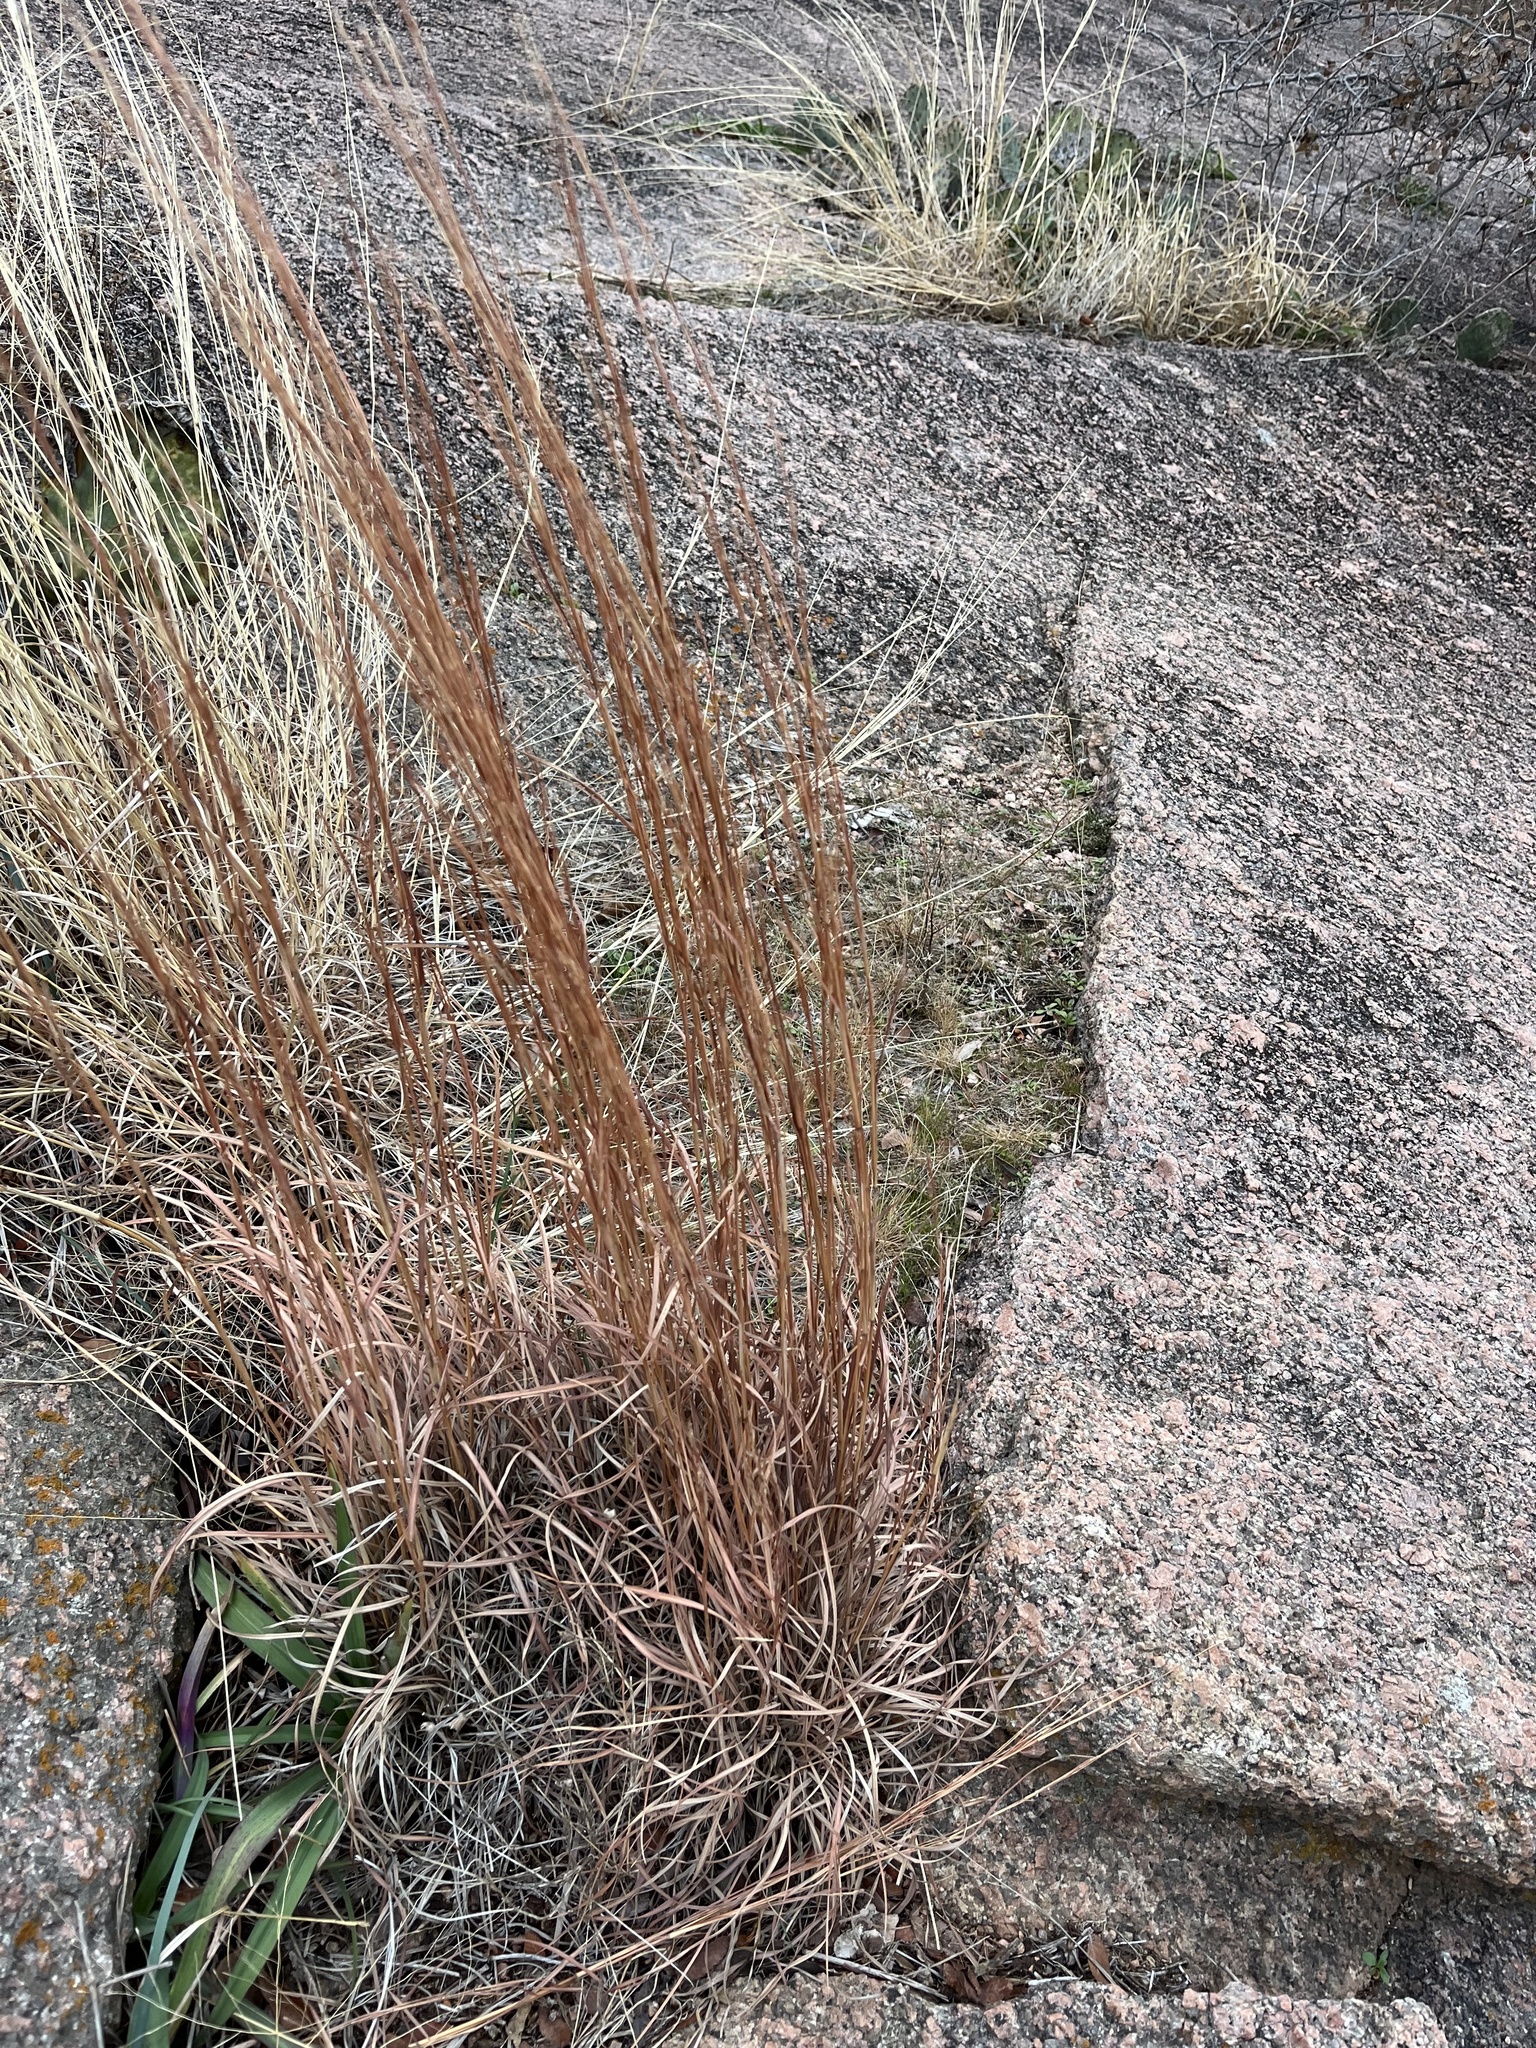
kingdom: Plantae
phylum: Tracheophyta
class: Liliopsida
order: Poales
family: Poaceae
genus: Schizachyrium
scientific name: Schizachyrium scoparium
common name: Little bluestem
